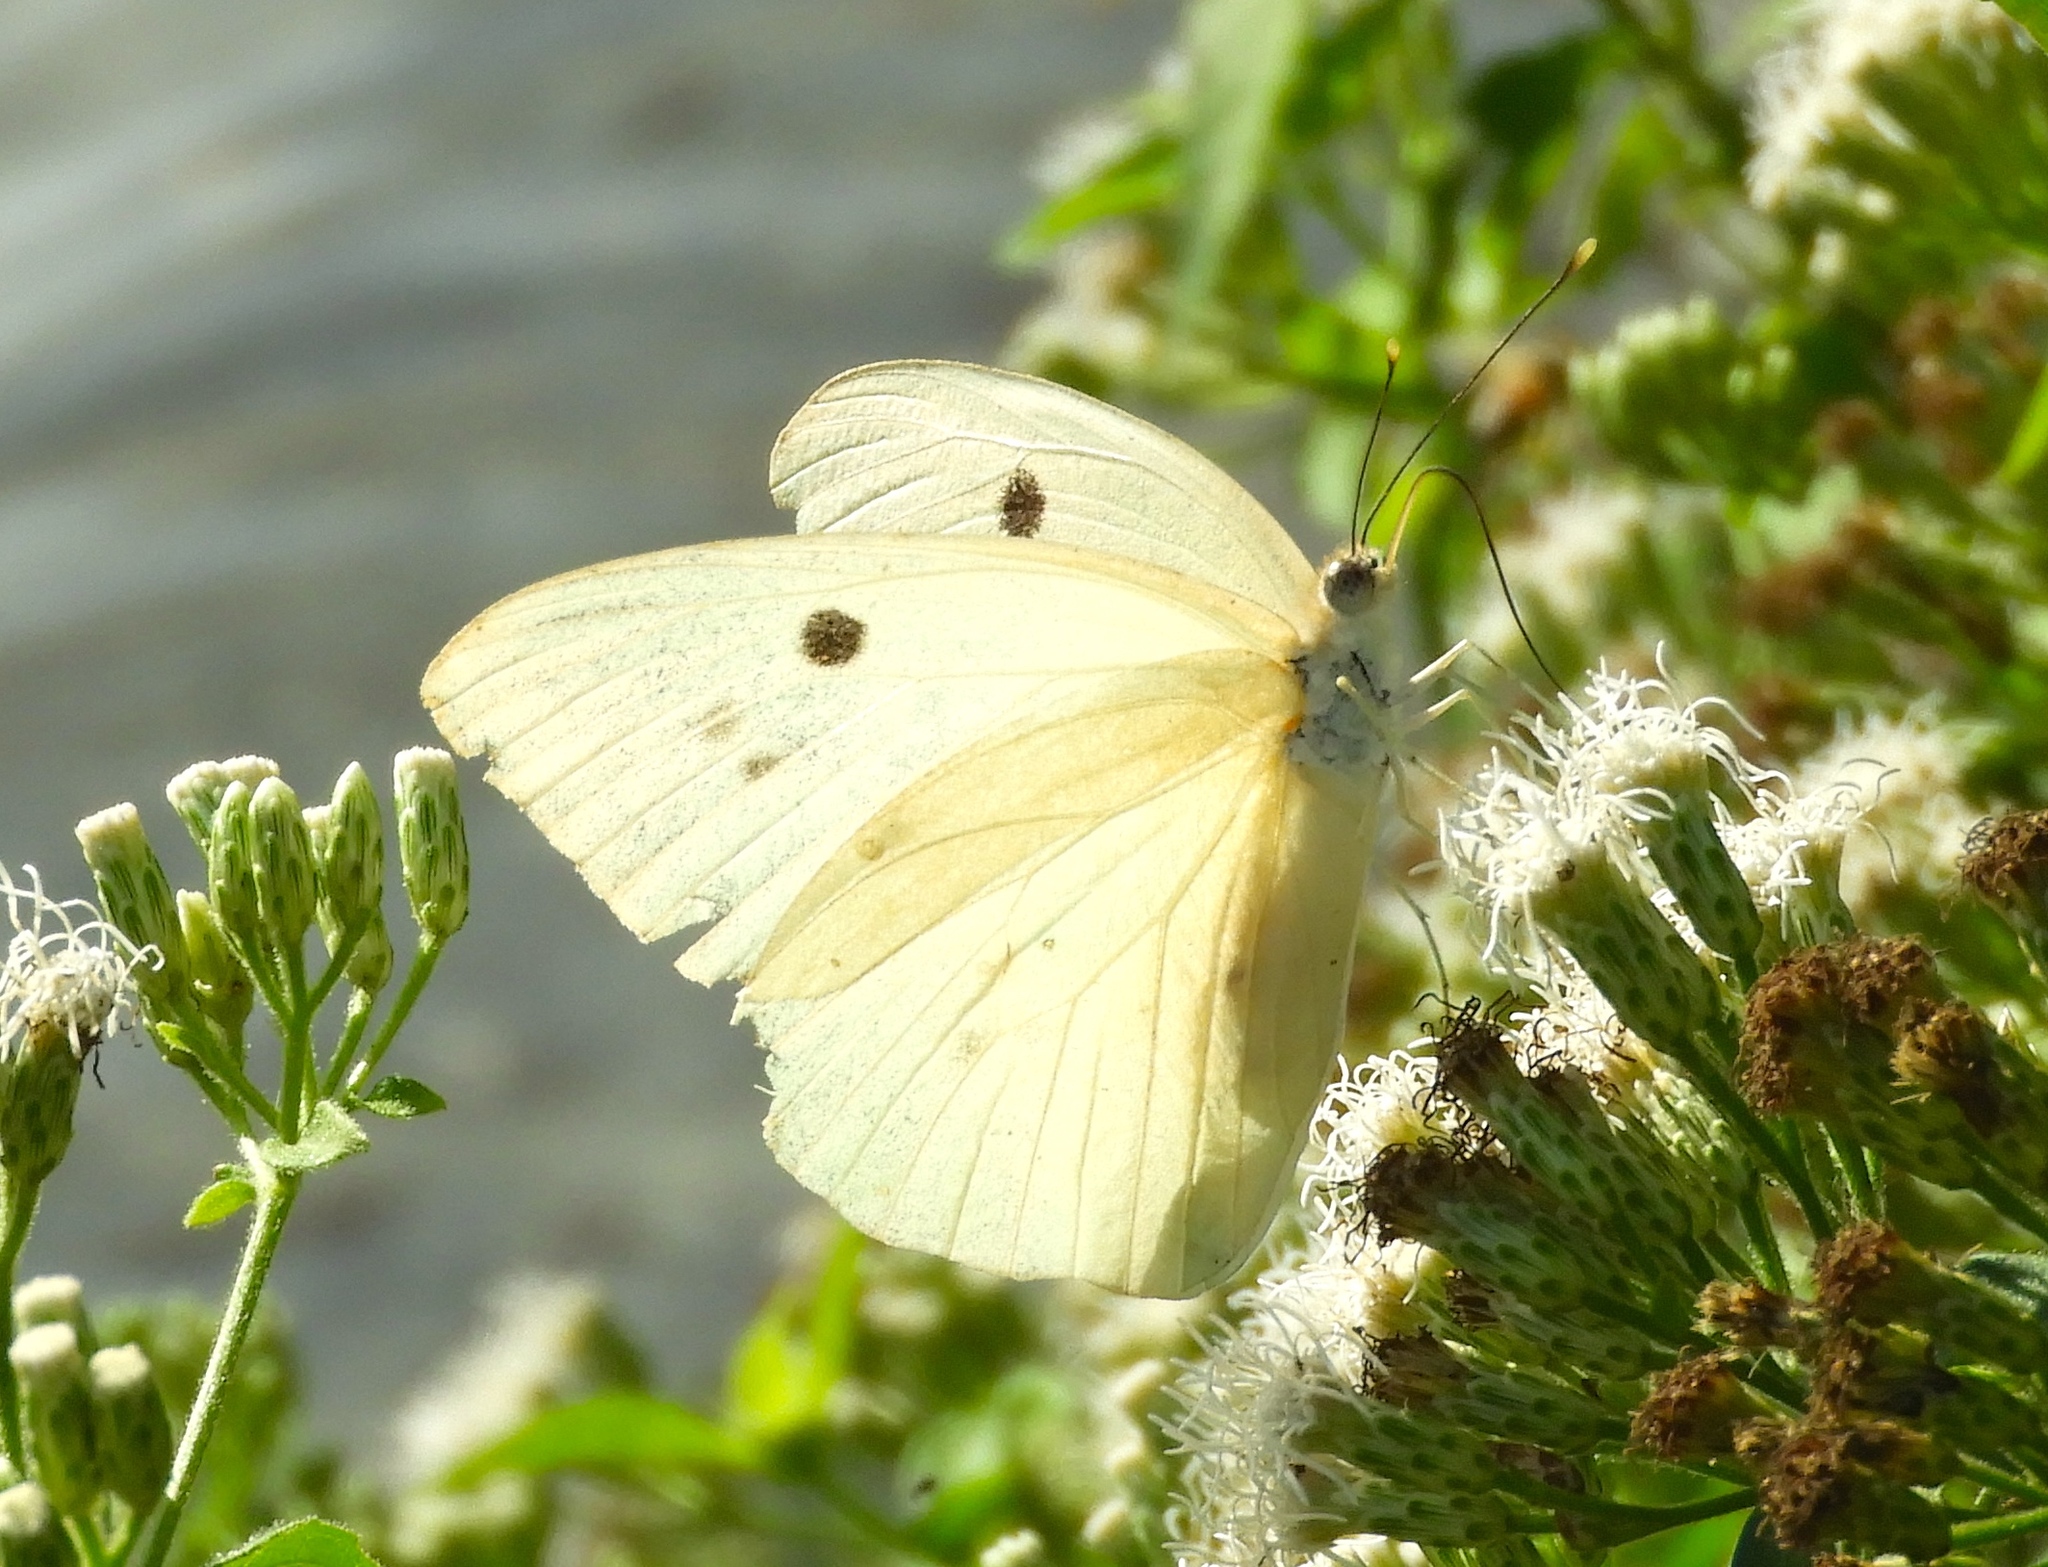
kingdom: Animalia
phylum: Arthropoda
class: Insecta
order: Lepidoptera
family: Pieridae
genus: Ganyra
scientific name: Ganyra josephina
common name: Giant white
